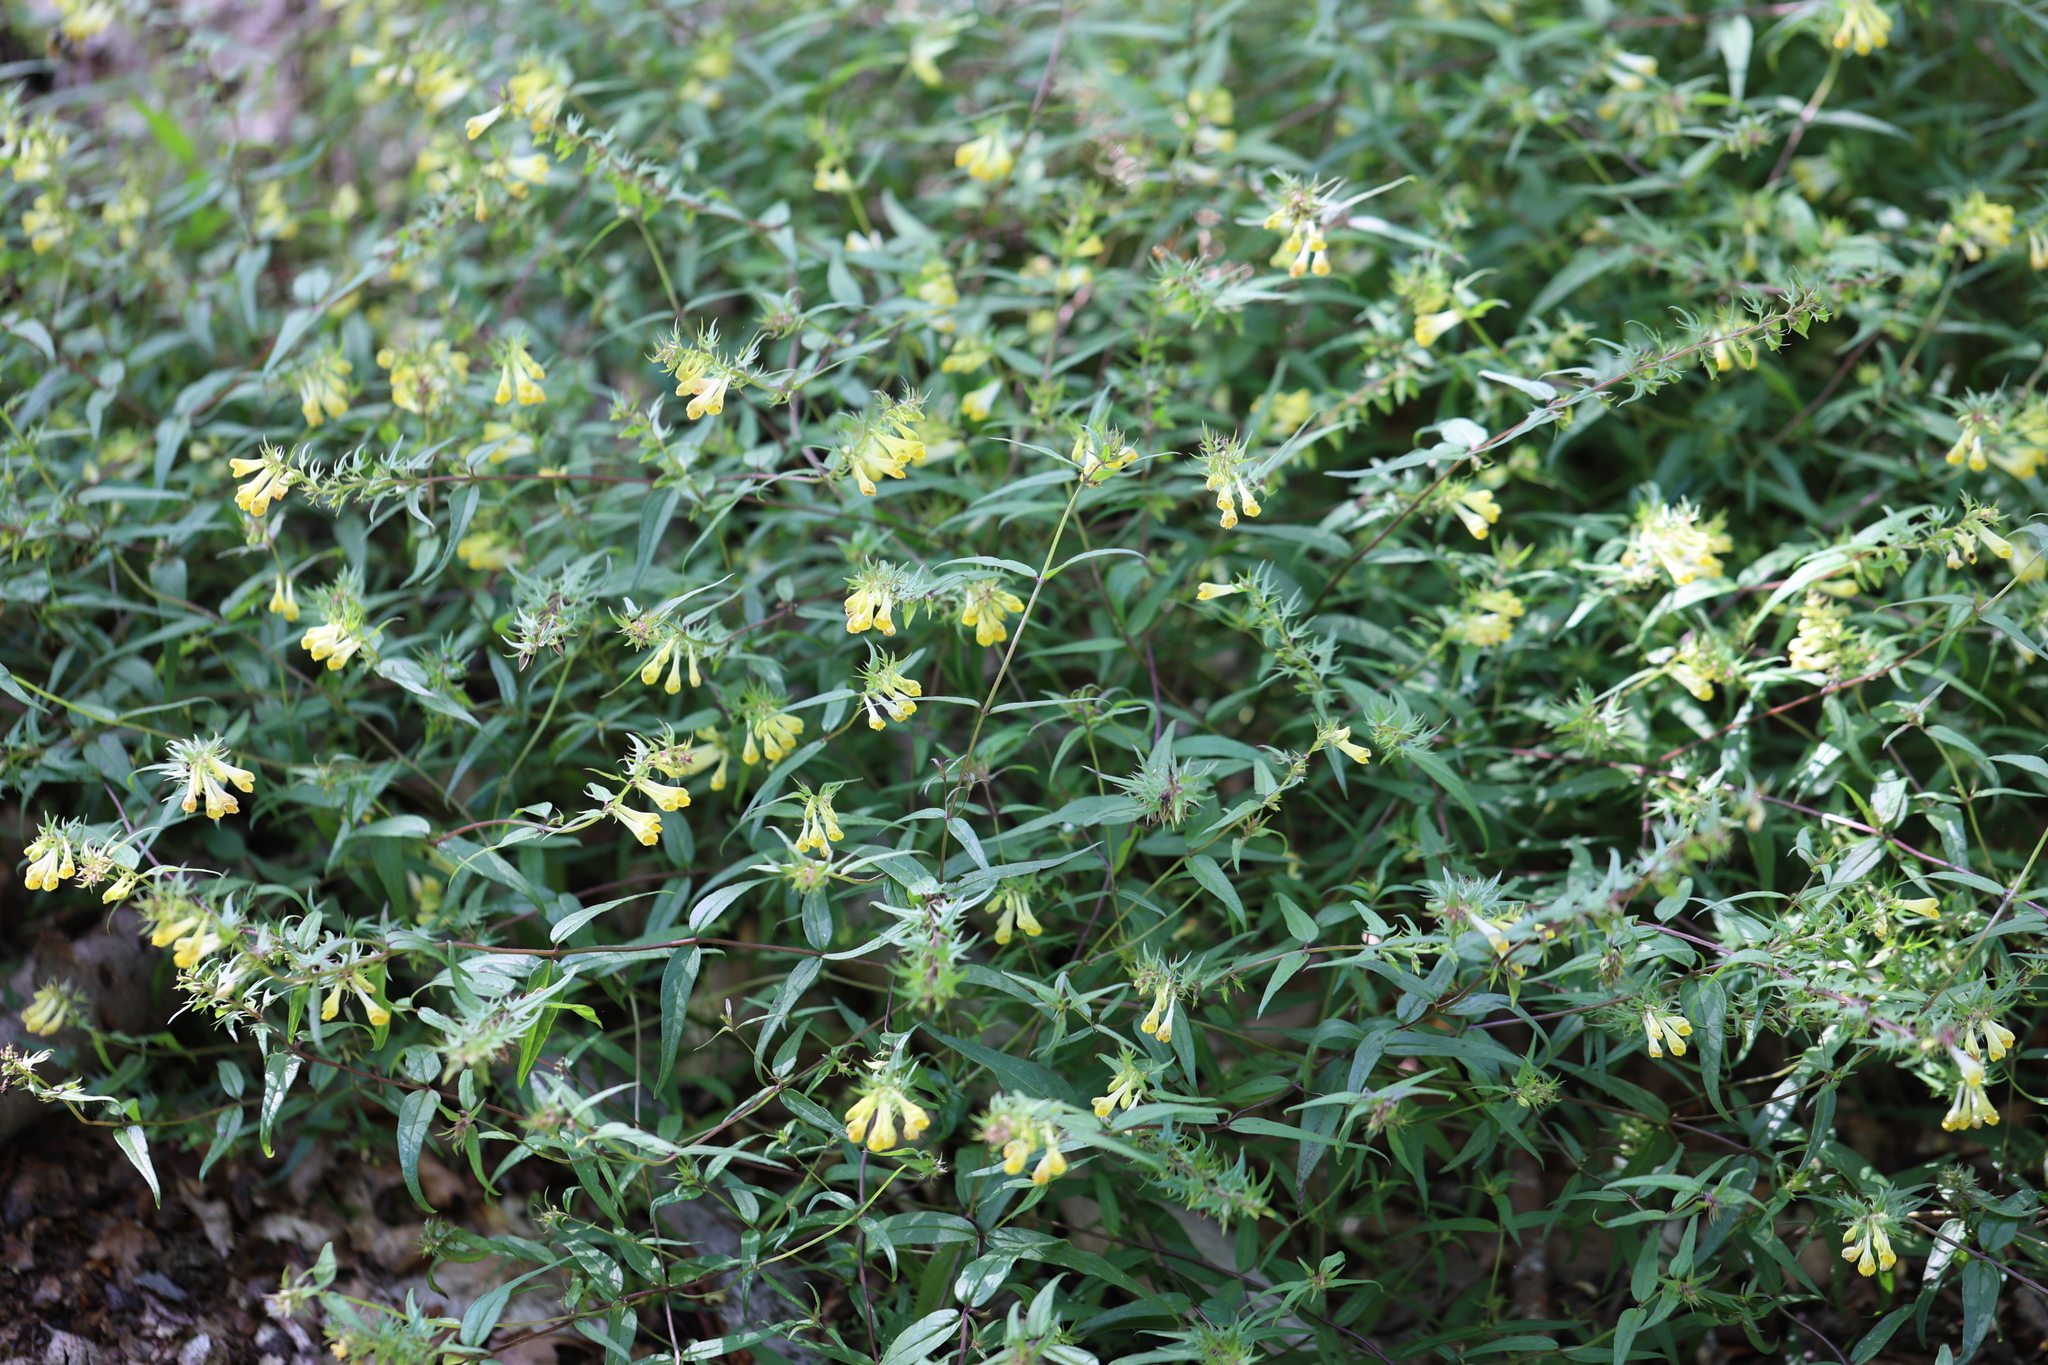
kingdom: Plantae
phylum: Tracheophyta
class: Magnoliopsida
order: Lamiales
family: Orobanchaceae
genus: Melampyrum
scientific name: Melampyrum pratense
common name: Common cow-wheat
